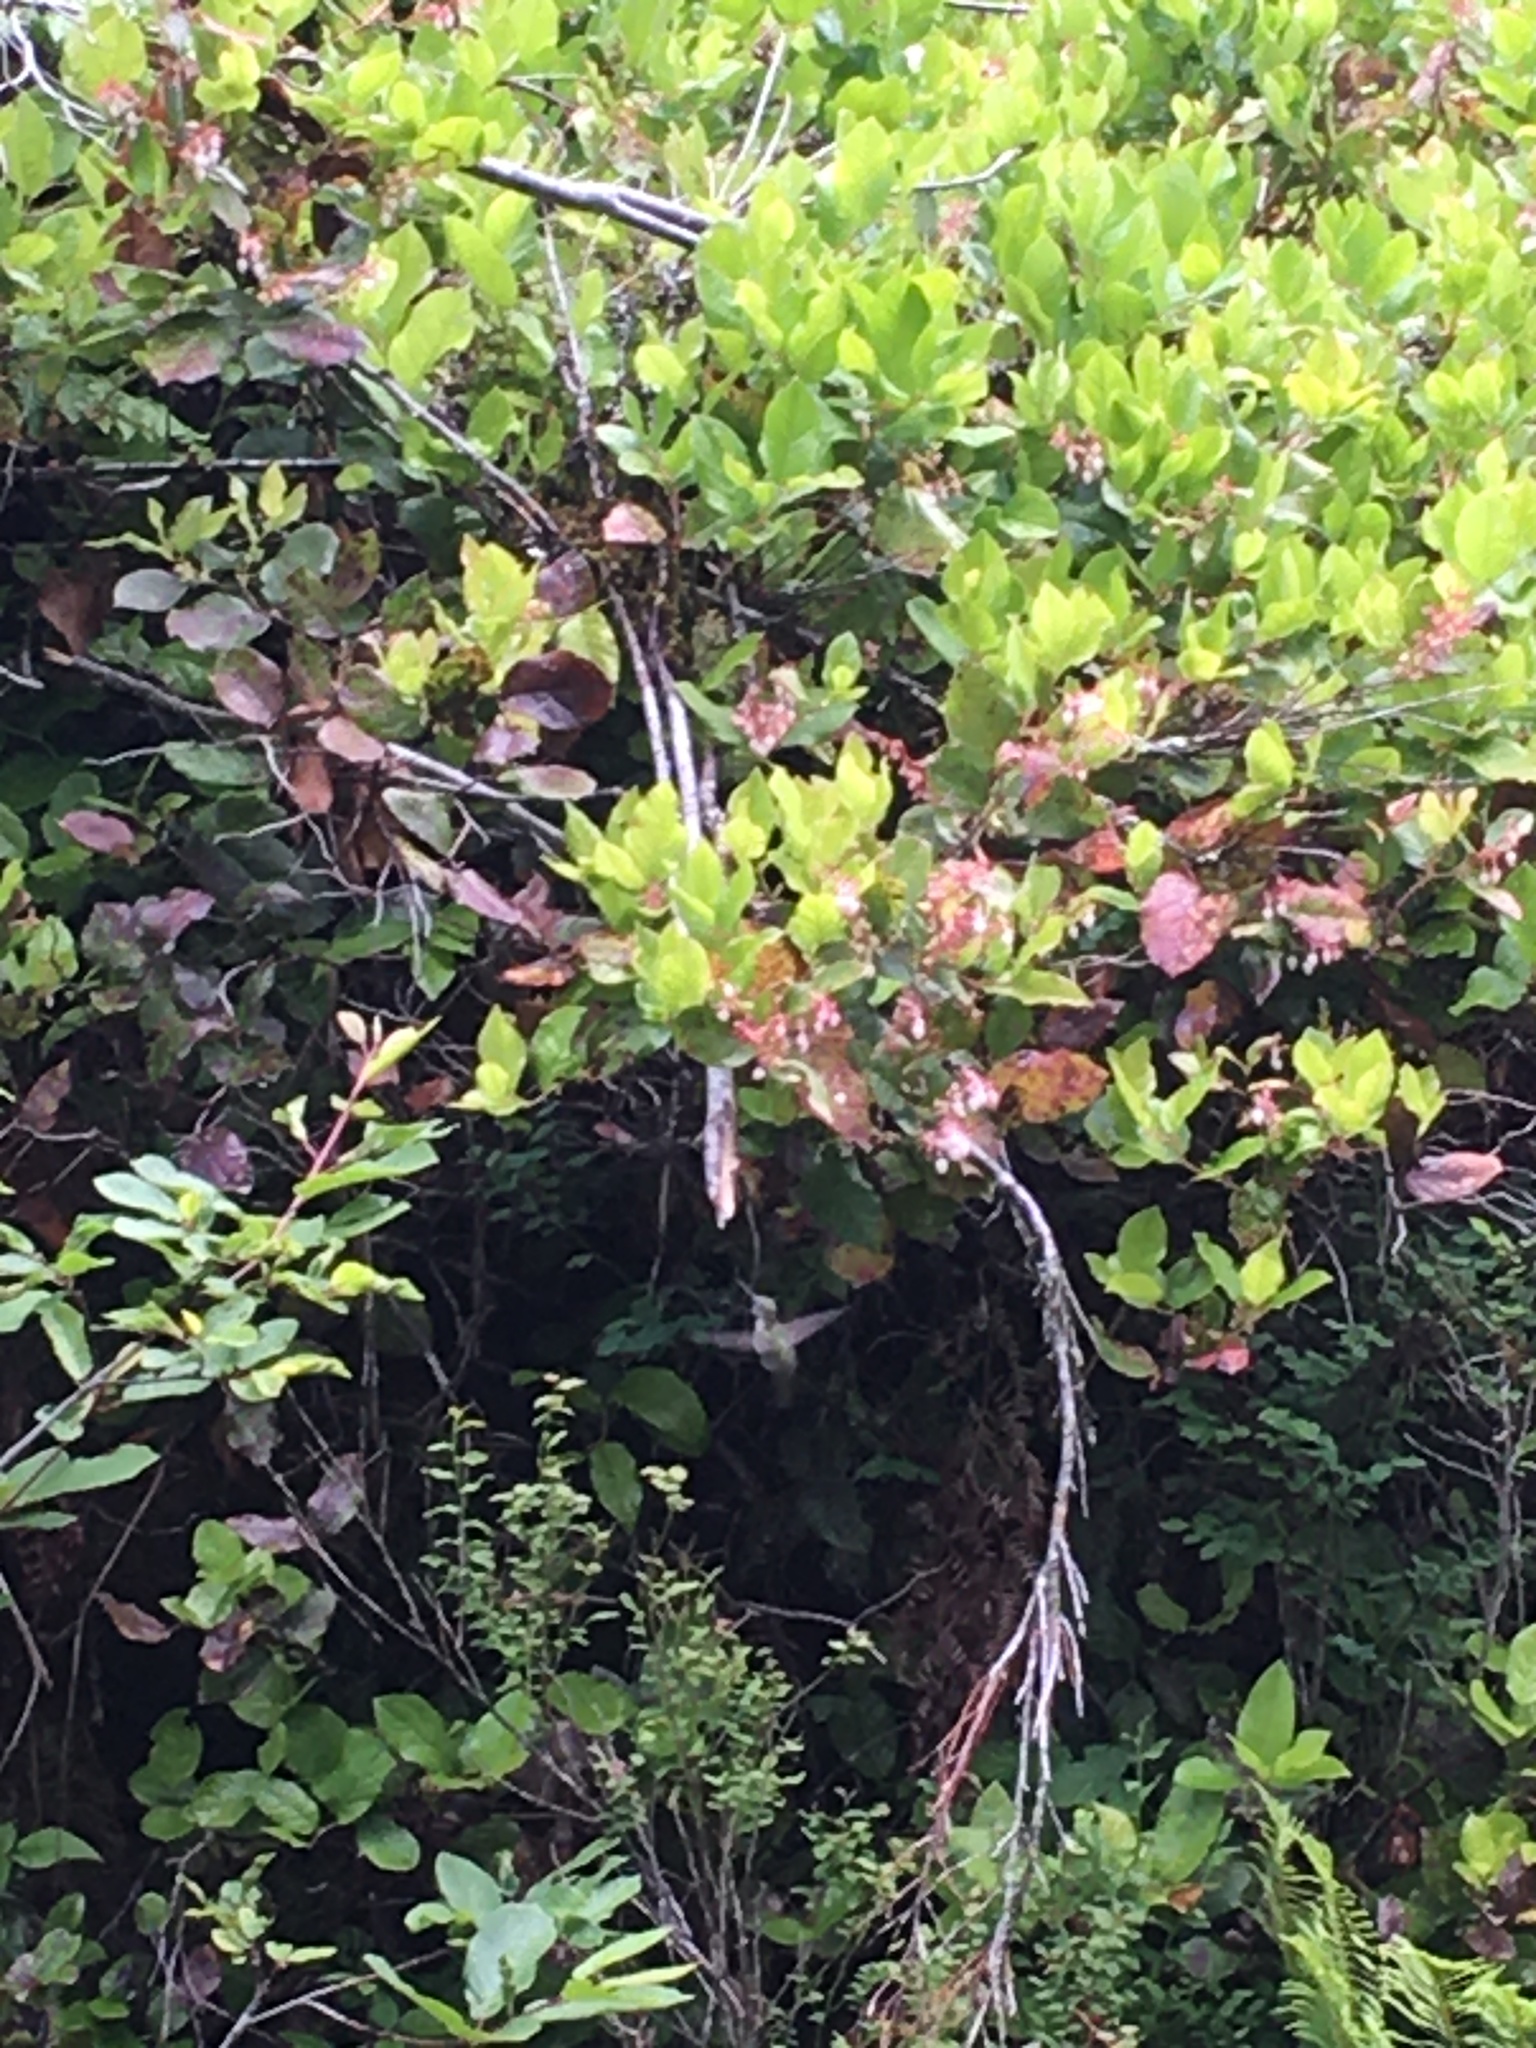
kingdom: Plantae
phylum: Tracheophyta
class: Magnoliopsida
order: Ericales
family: Ericaceae
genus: Gaultheria
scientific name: Gaultheria shallon
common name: Shallon
